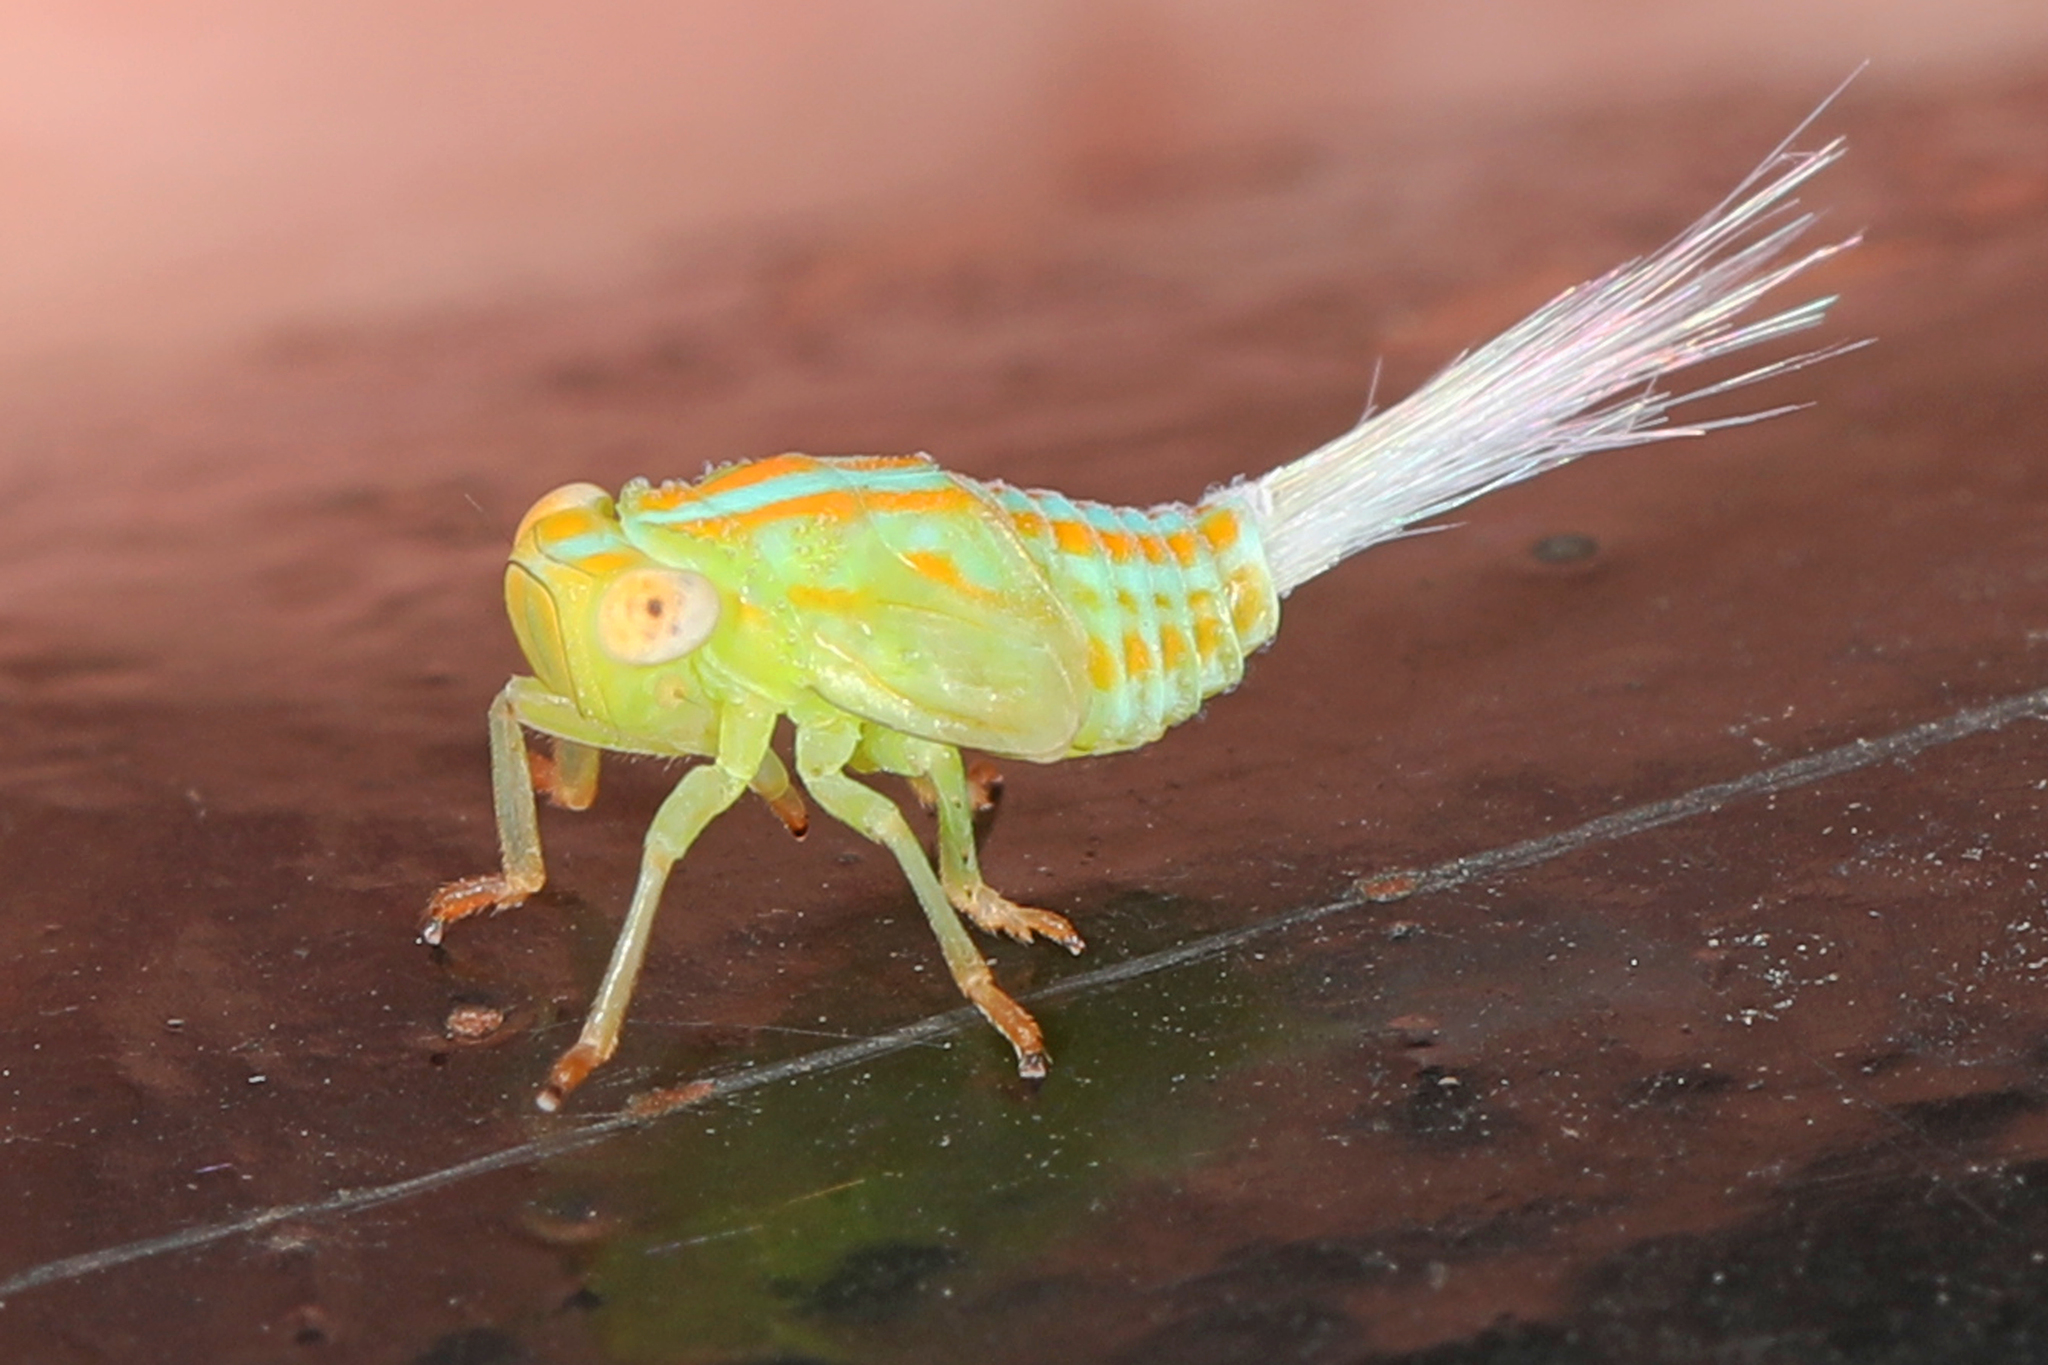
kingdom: Animalia
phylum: Arthropoda
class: Insecta
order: Hemiptera
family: Issidae
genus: Aplos
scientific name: Aplos simplex
